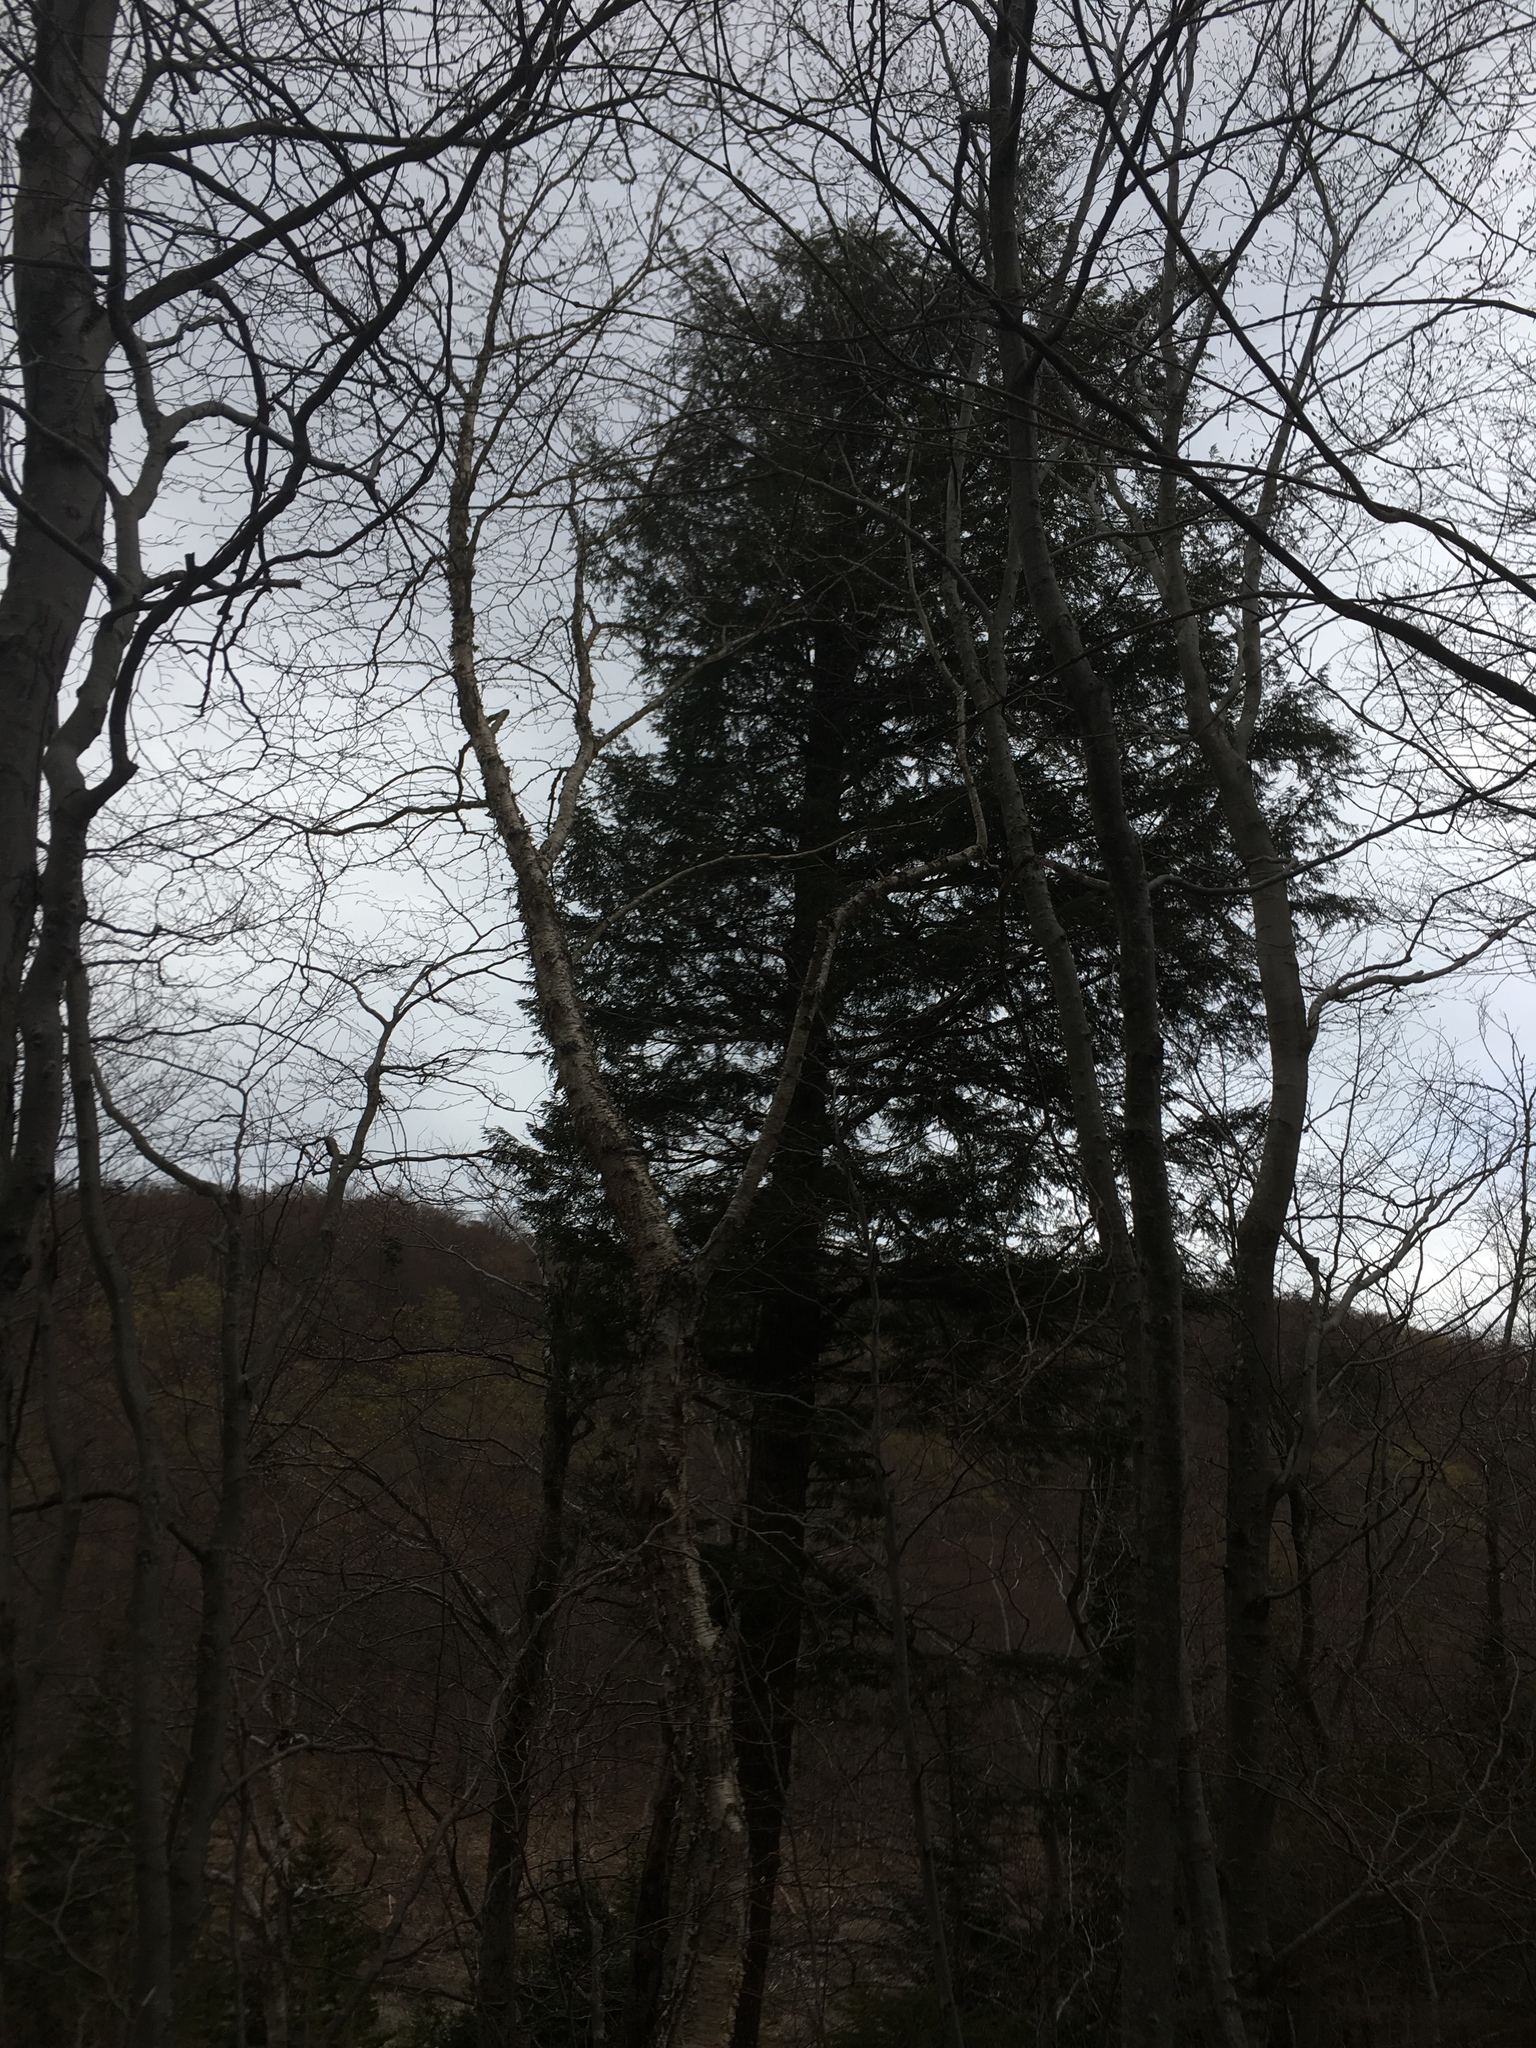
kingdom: Plantae
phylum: Tracheophyta
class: Pinopsida
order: Pinales
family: Pinaceae
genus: Tsuga
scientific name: Tsuga canadensis
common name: Eastern hemlock
